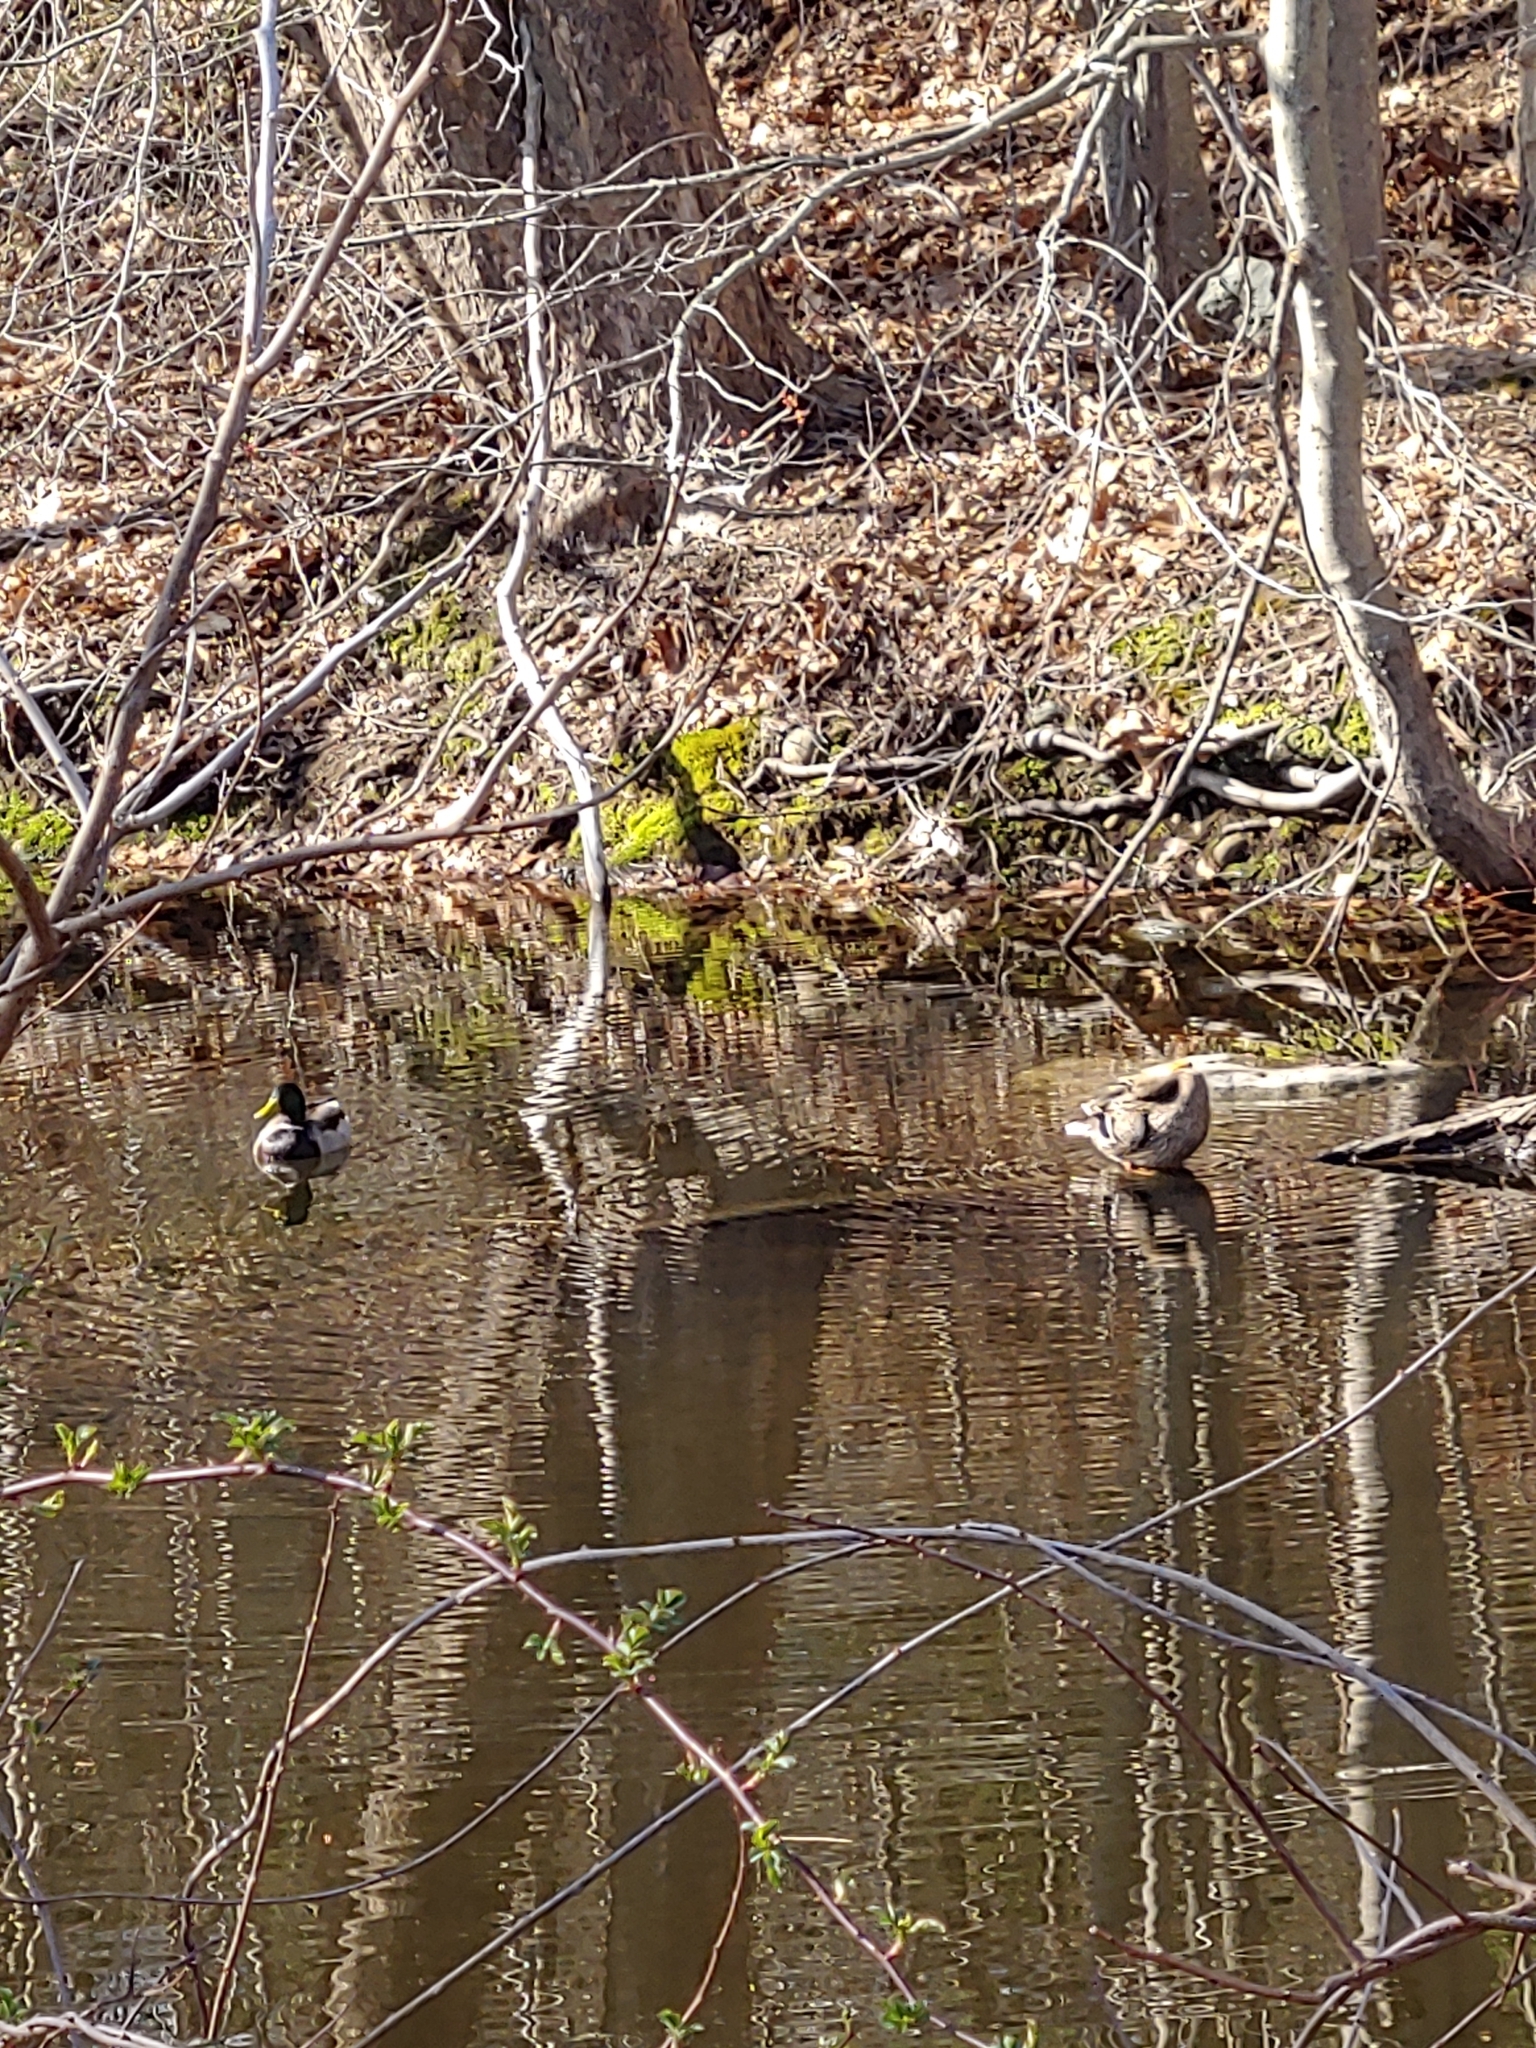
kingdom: Animalia
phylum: Chordata
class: Aves
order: Anseriformes
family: Anatidae
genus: Anas
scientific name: Anas platyrhynchos
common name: Mallard
